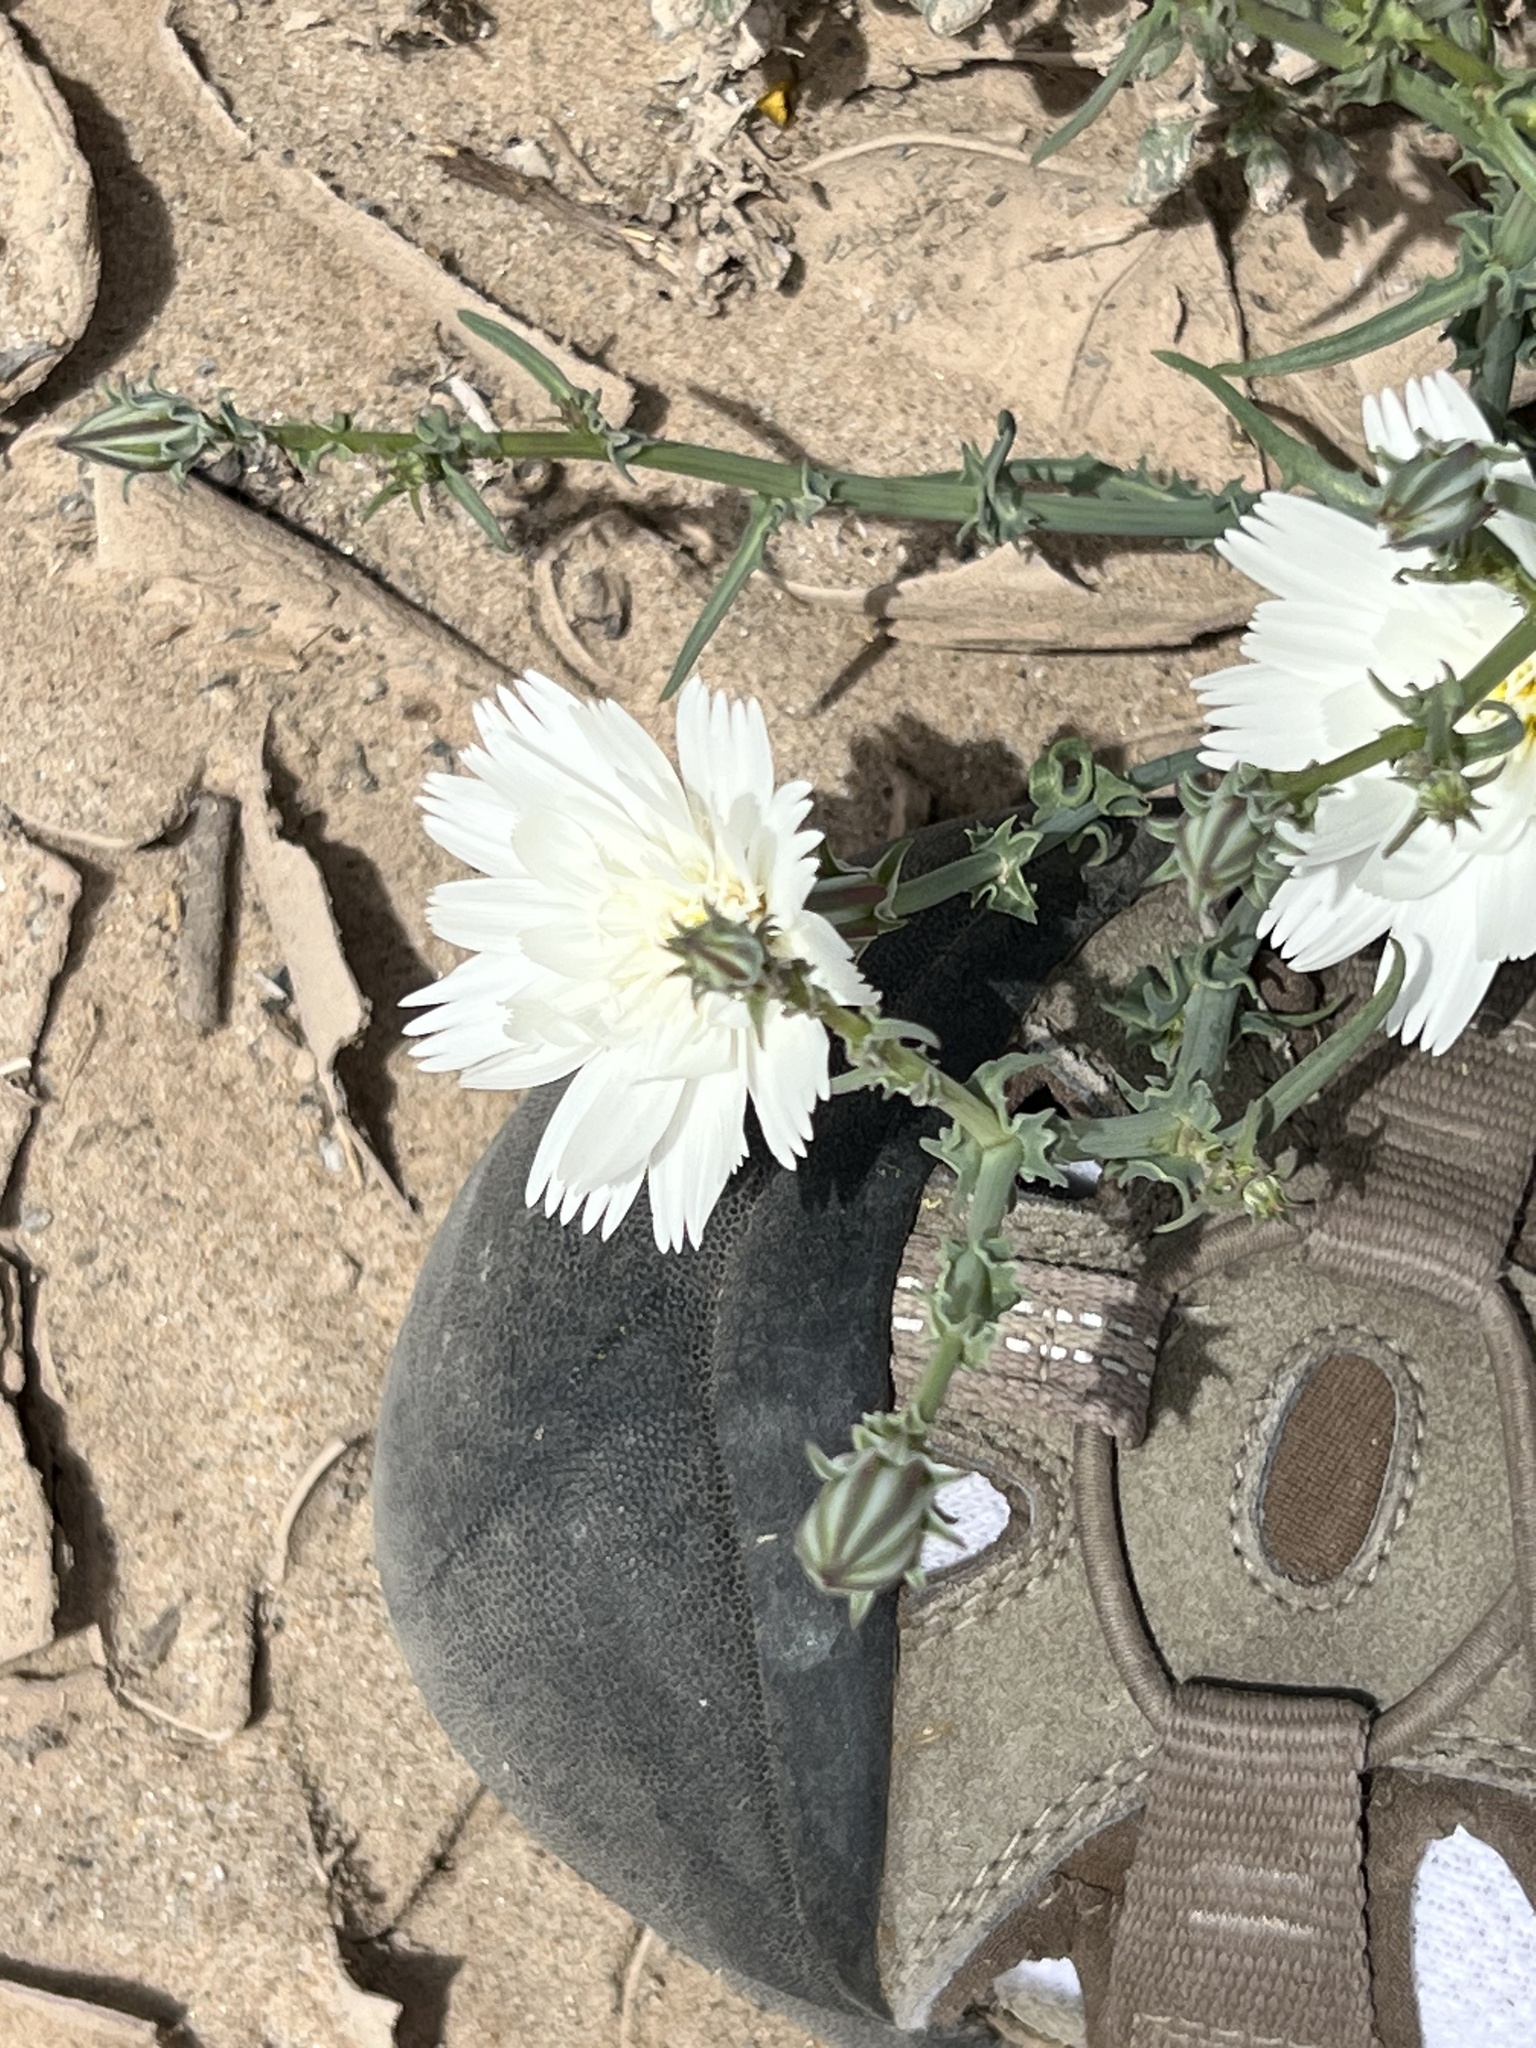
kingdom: Plantae
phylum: Tracheophyta
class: Magnoliopsida
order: Asterales
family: Asteraceae
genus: Rafinesquia
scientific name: Rafinesquia neomexicana
